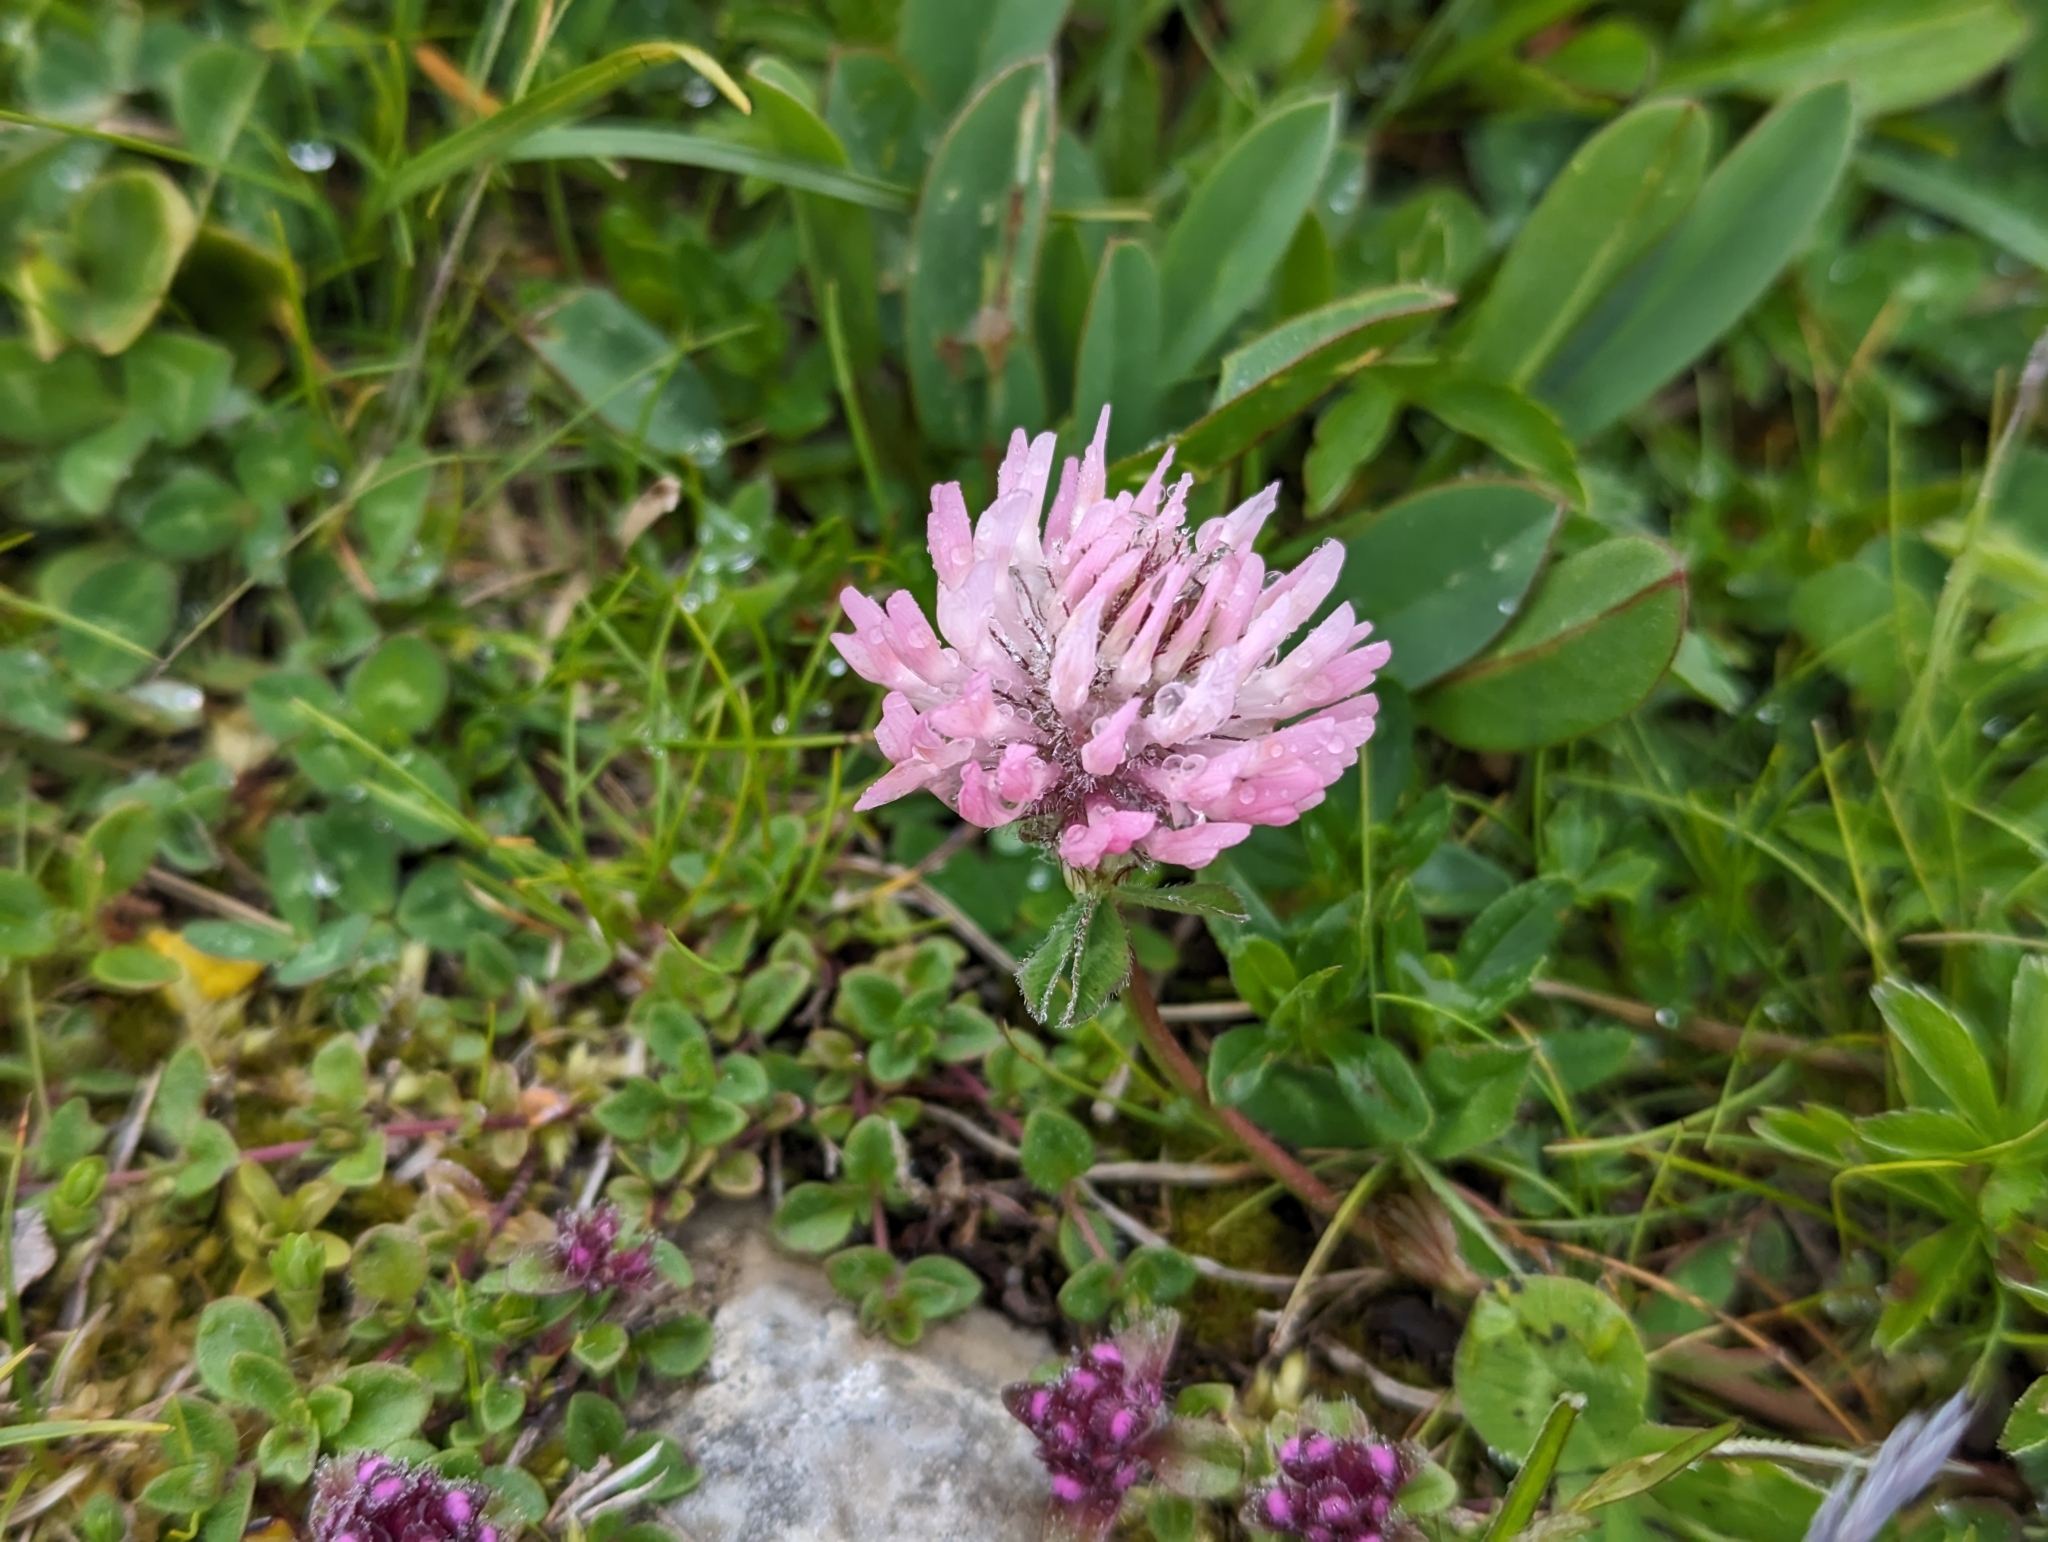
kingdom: Plantae
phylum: Tracheophyta
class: Magnoliopsida
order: Fabales
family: Fabaceae
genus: Trifolium
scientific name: Trifolium pratense
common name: Red clover
